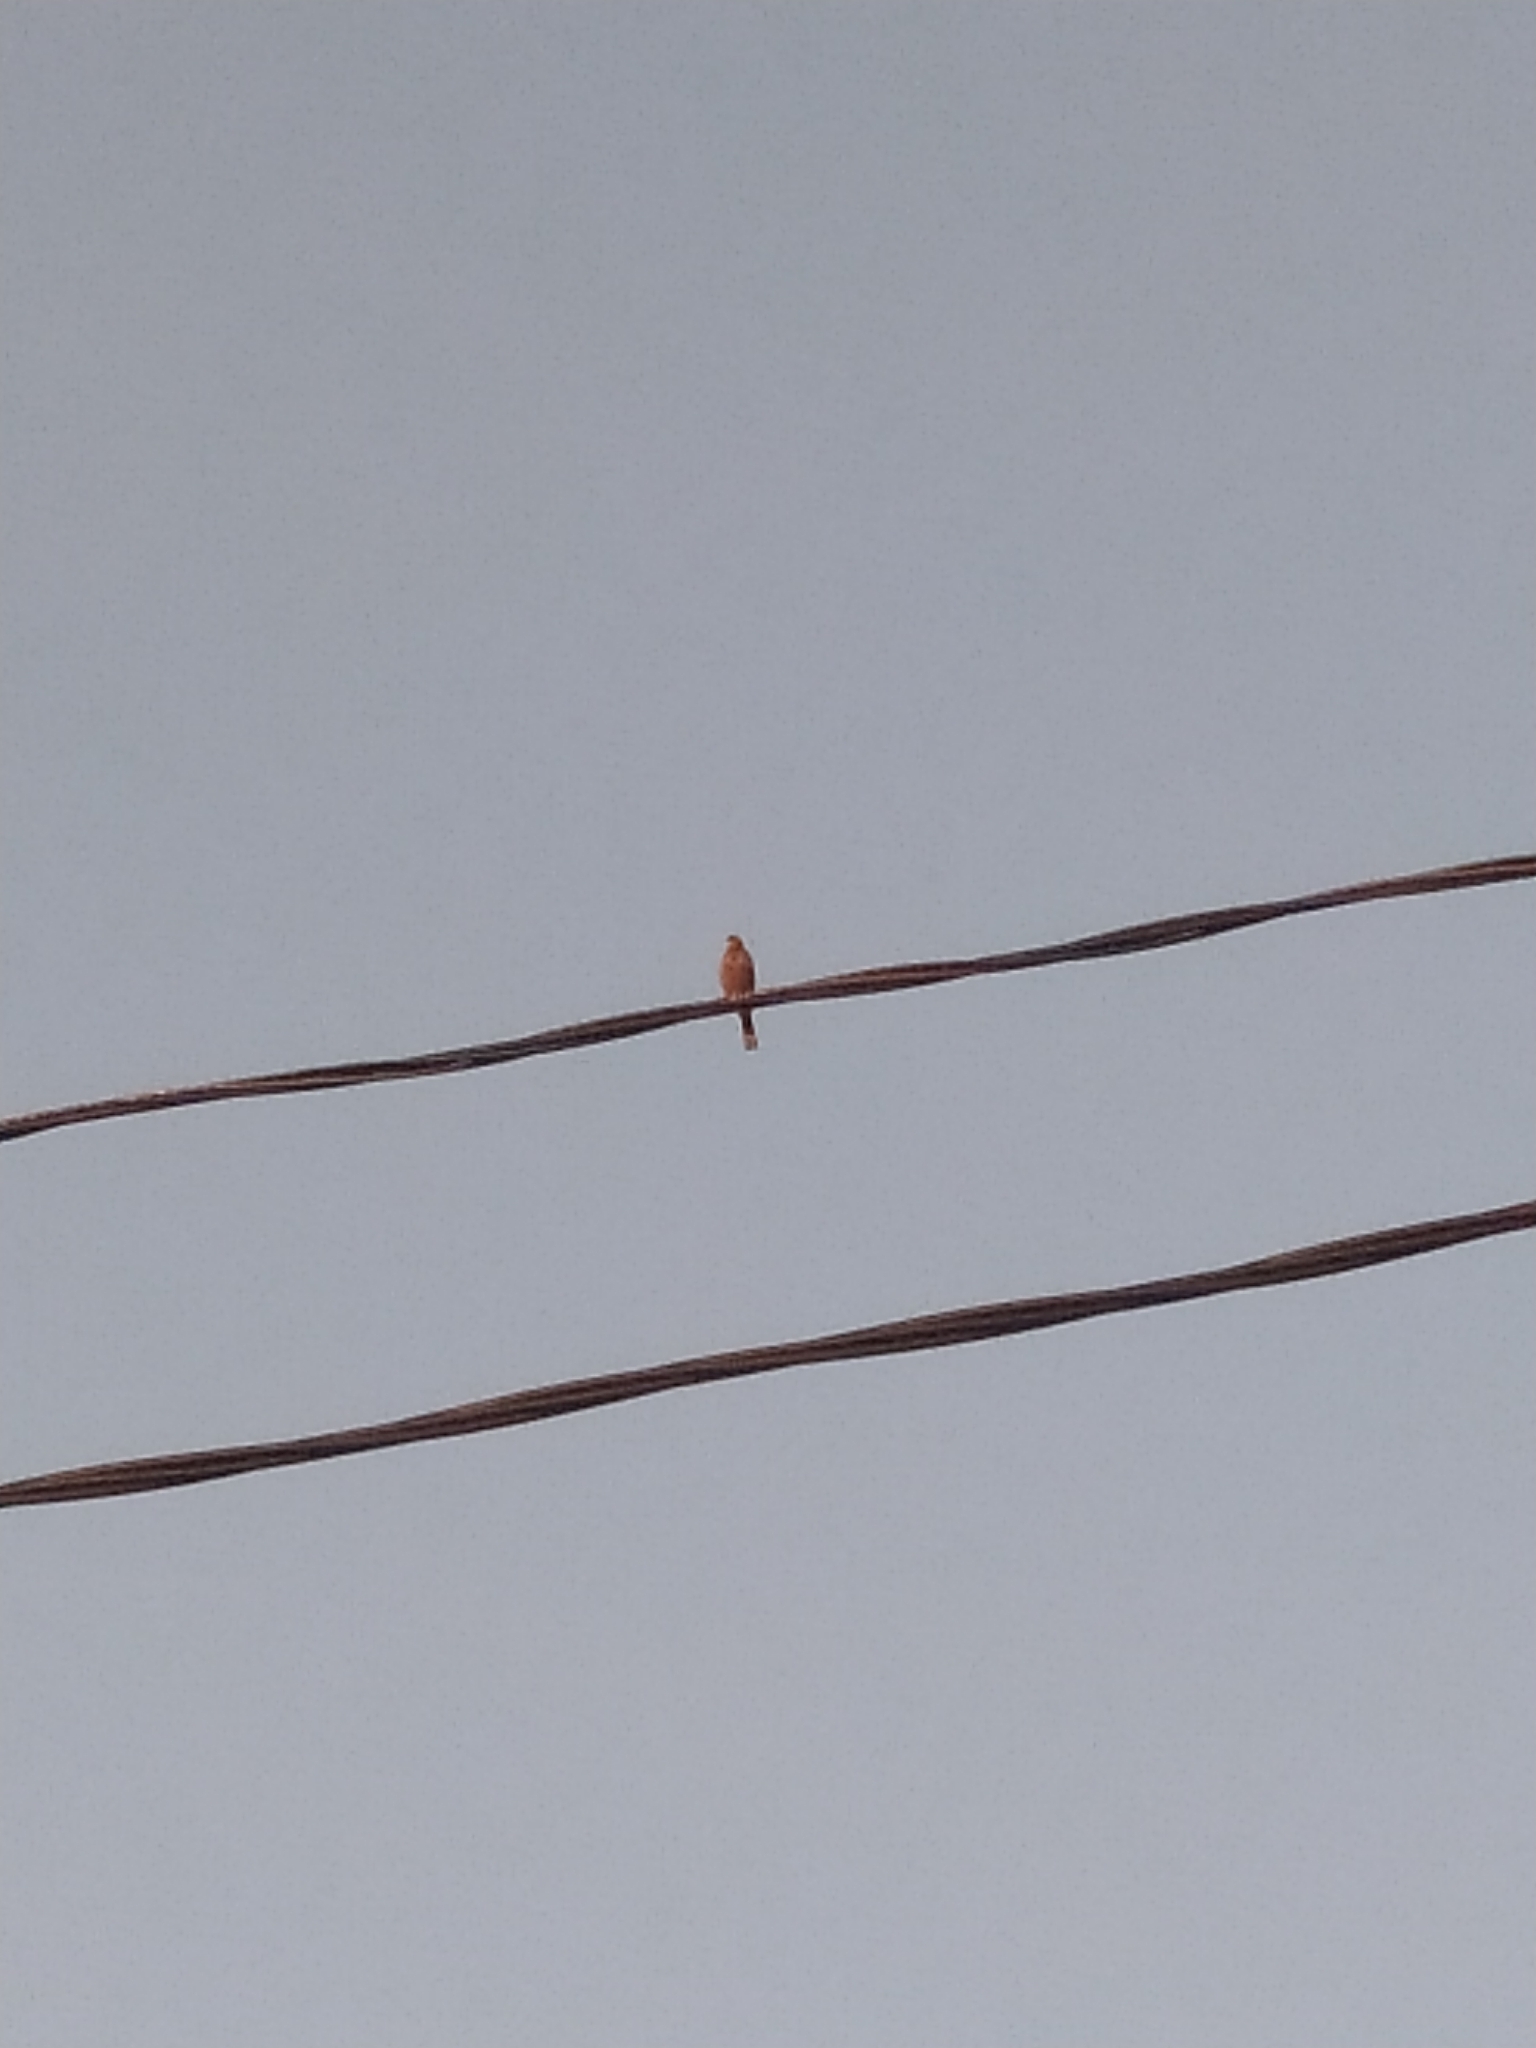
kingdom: Animalia
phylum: Chordata
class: Aves
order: Passeriformes
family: Emberizidae
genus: Emberiza
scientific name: Emberiza hortulana
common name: Ortolan bunting
